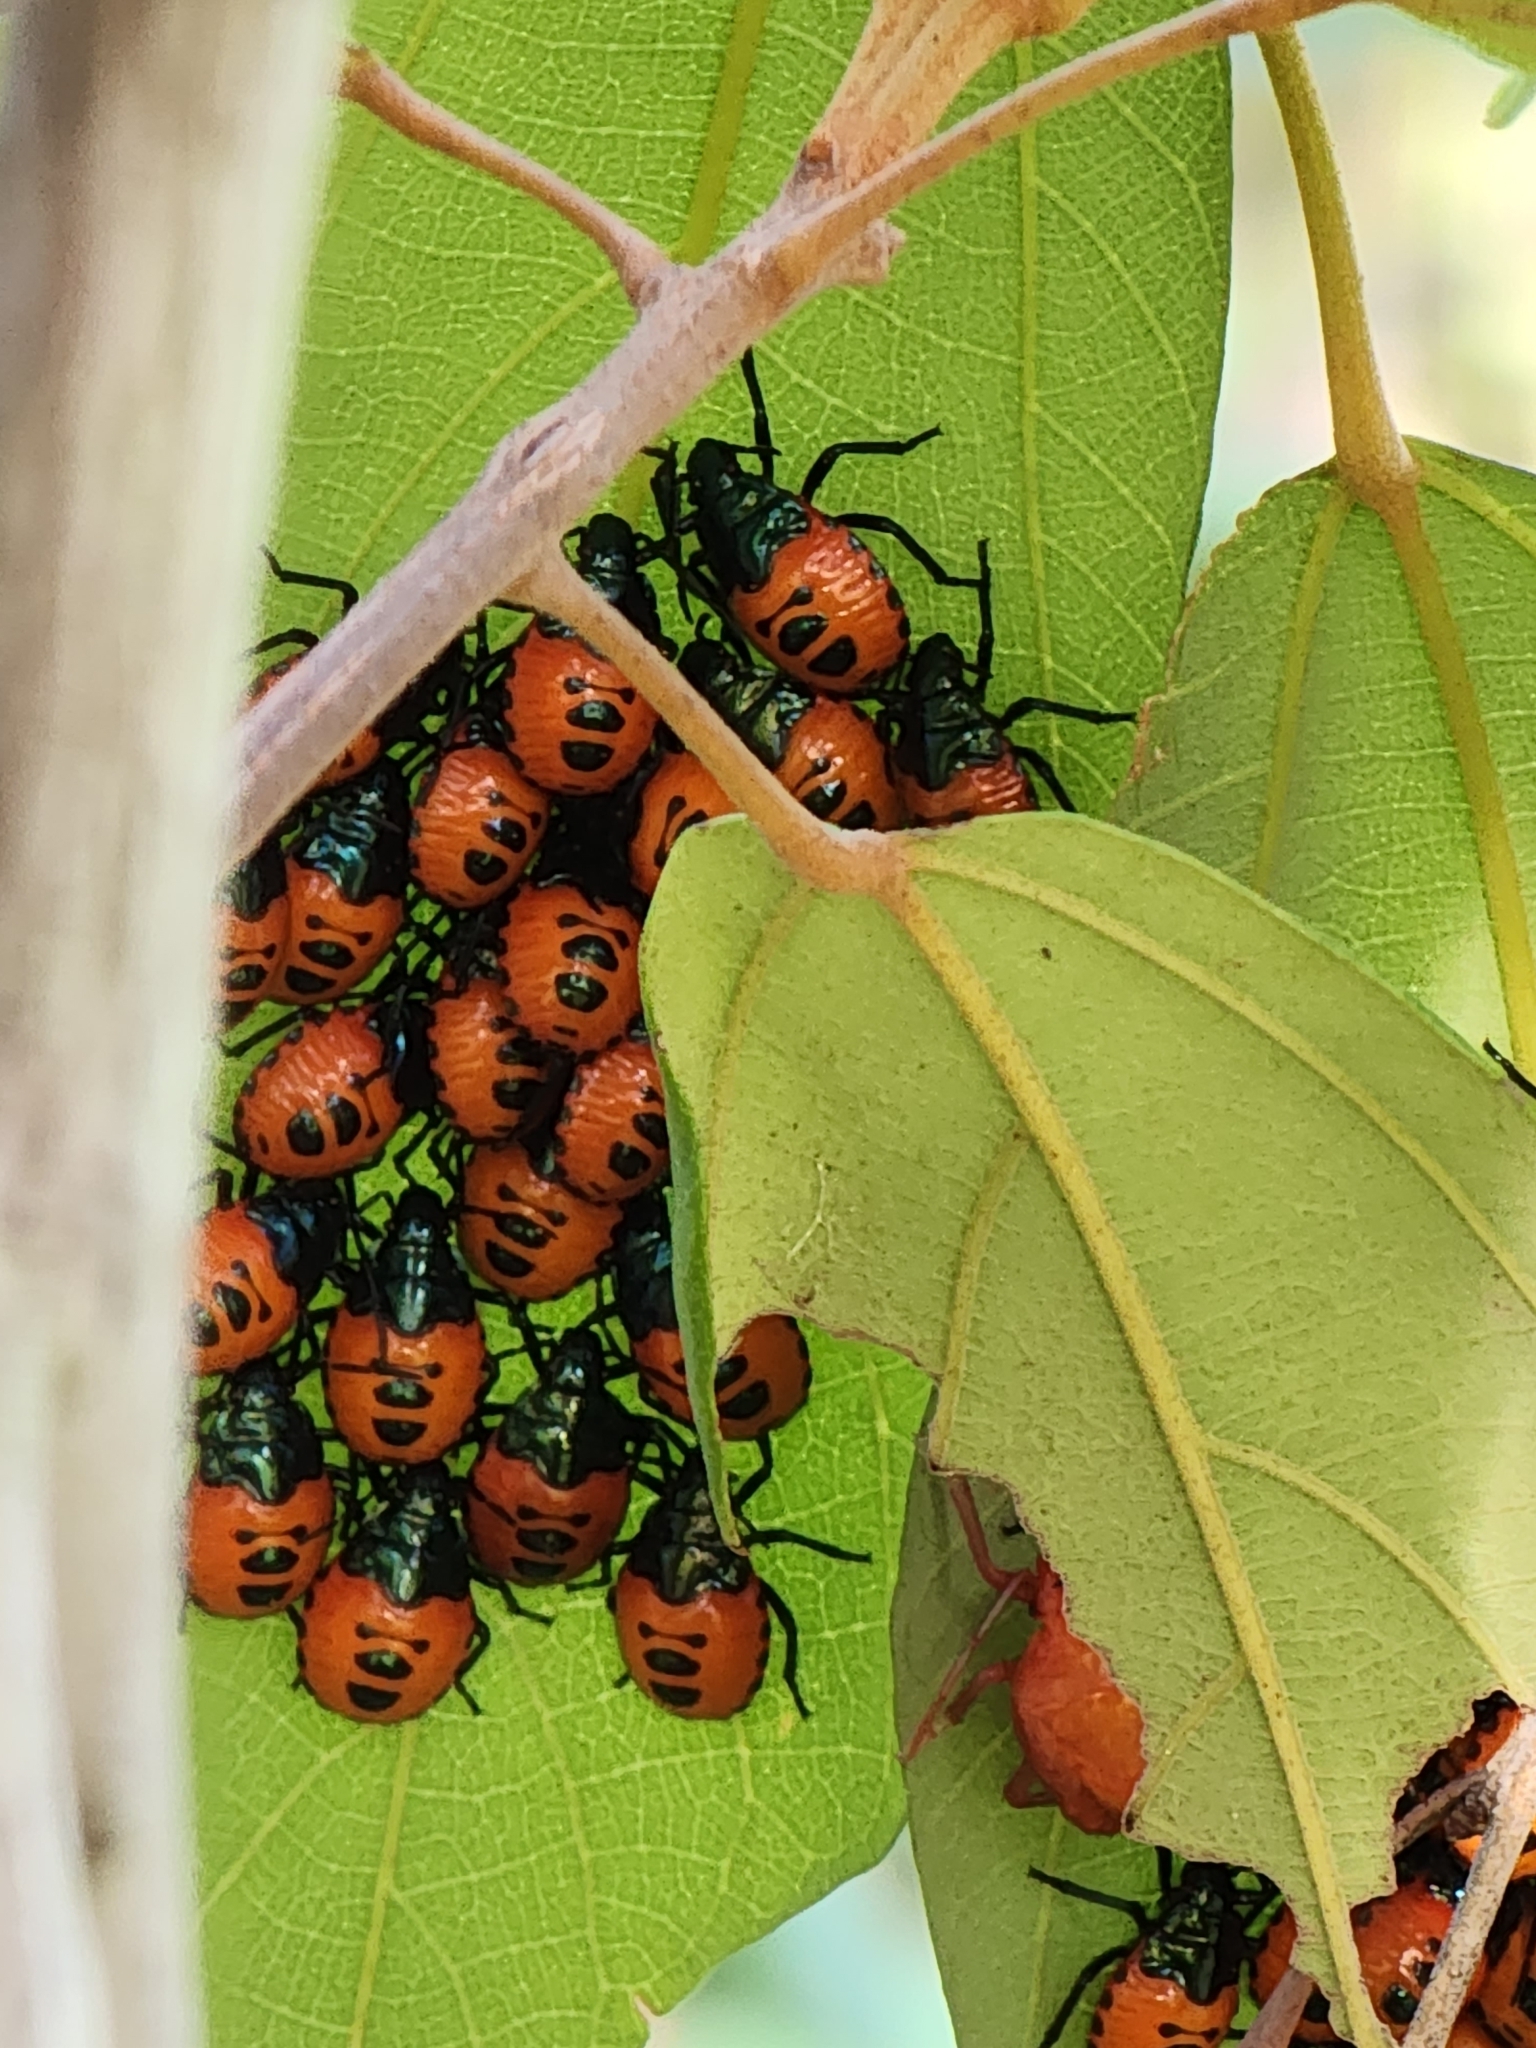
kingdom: Animalia
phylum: Arthropoda
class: Insecta
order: Hemiptera
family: Scutelleridae
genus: Cantao
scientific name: Cantao
